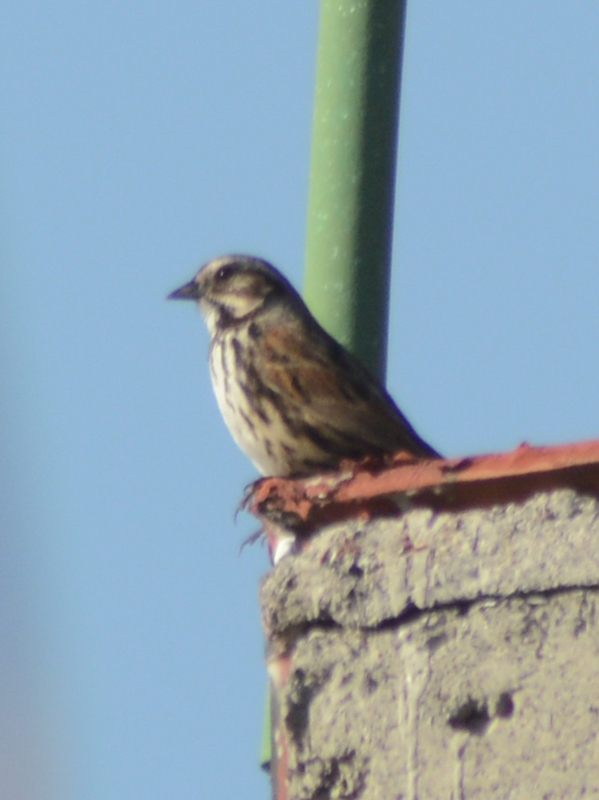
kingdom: Animalia
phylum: Chordata
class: Aves
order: Passeriformes
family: Passerellidae
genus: Melospiza
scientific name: Melospiza melodia
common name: Song sparrow
